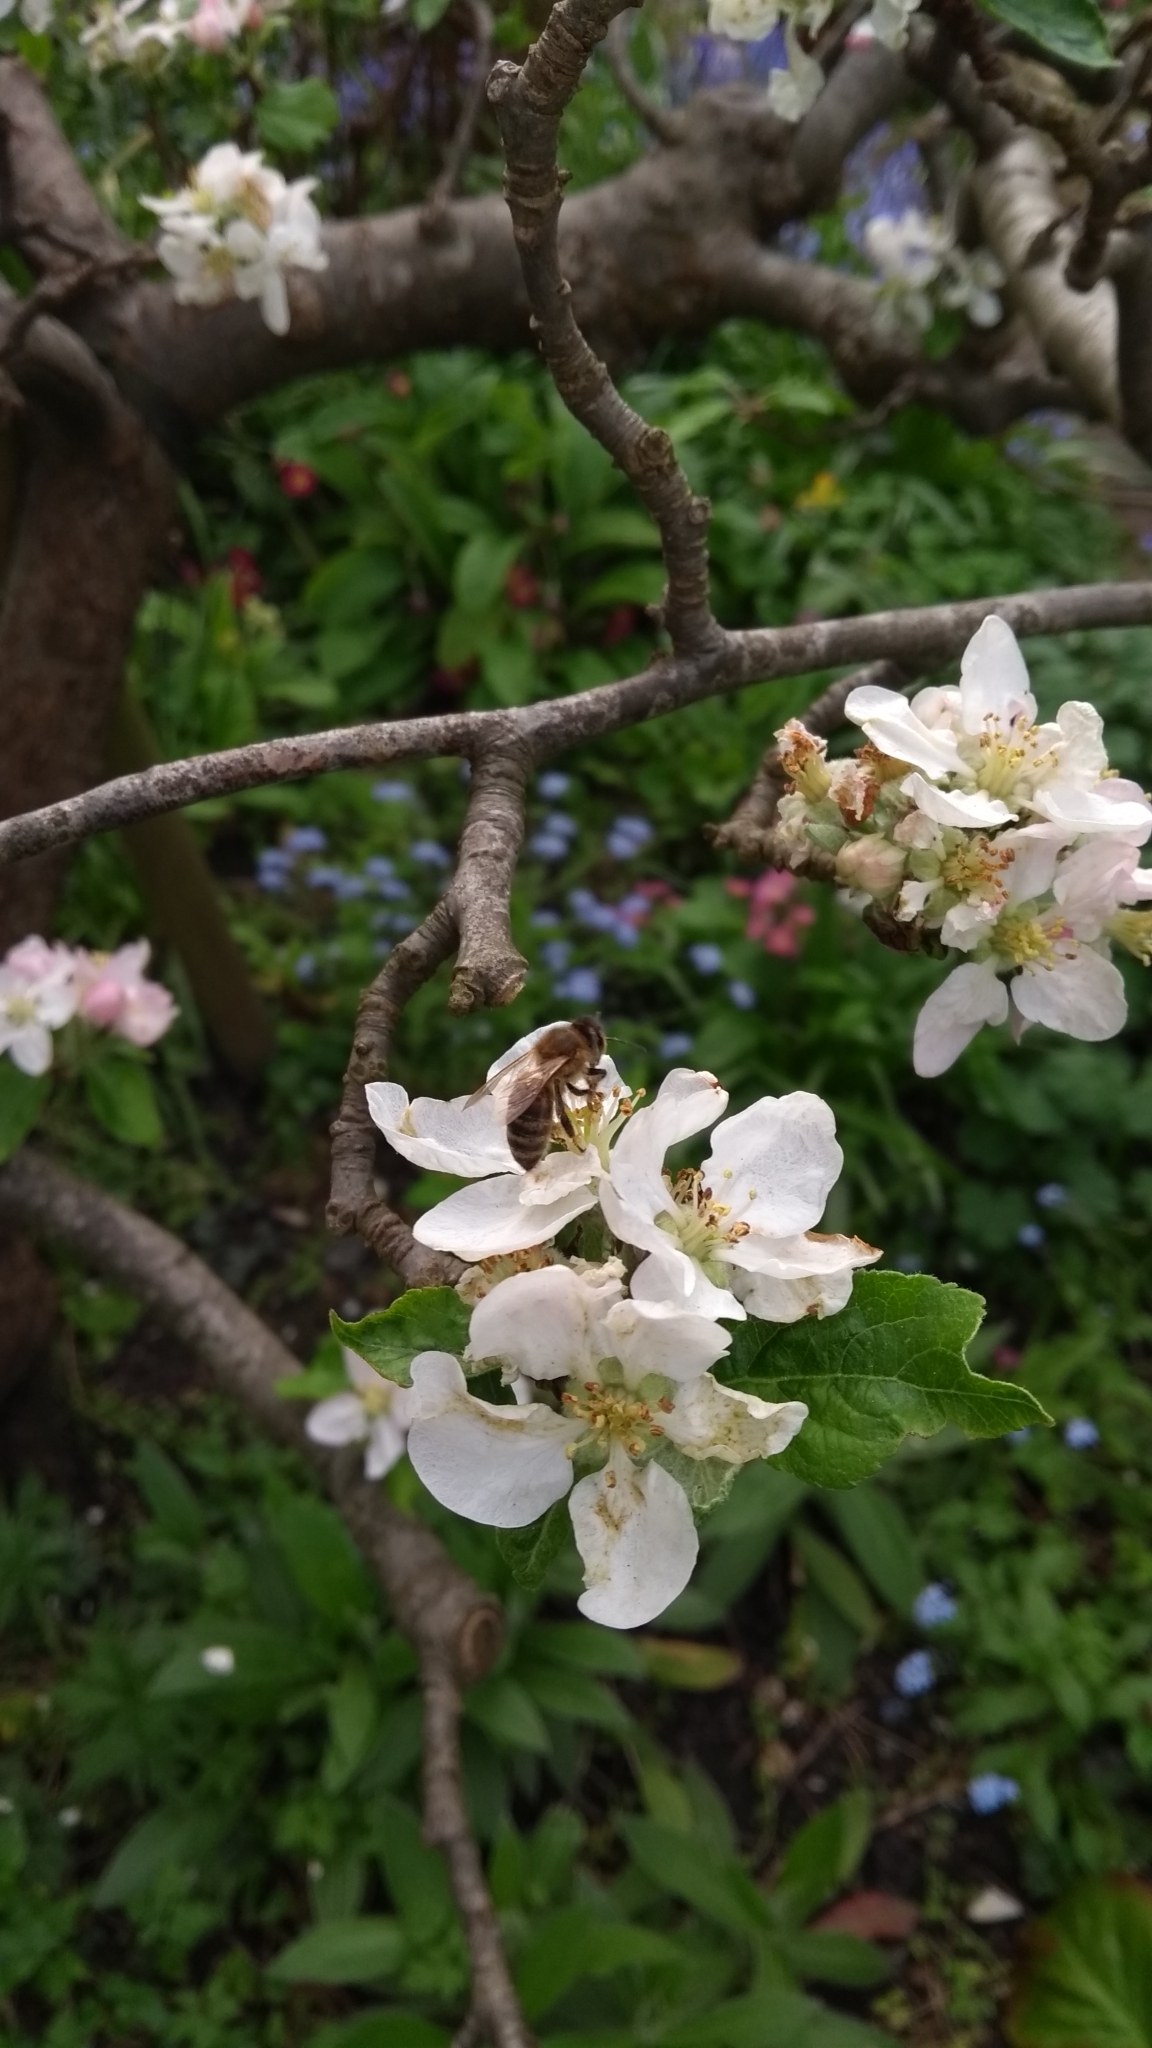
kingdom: Animalia
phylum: Arthropoda
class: Insecta
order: Hymenoptera
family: Apidae
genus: Apis
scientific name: Apis mellifera
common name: Honey bee
